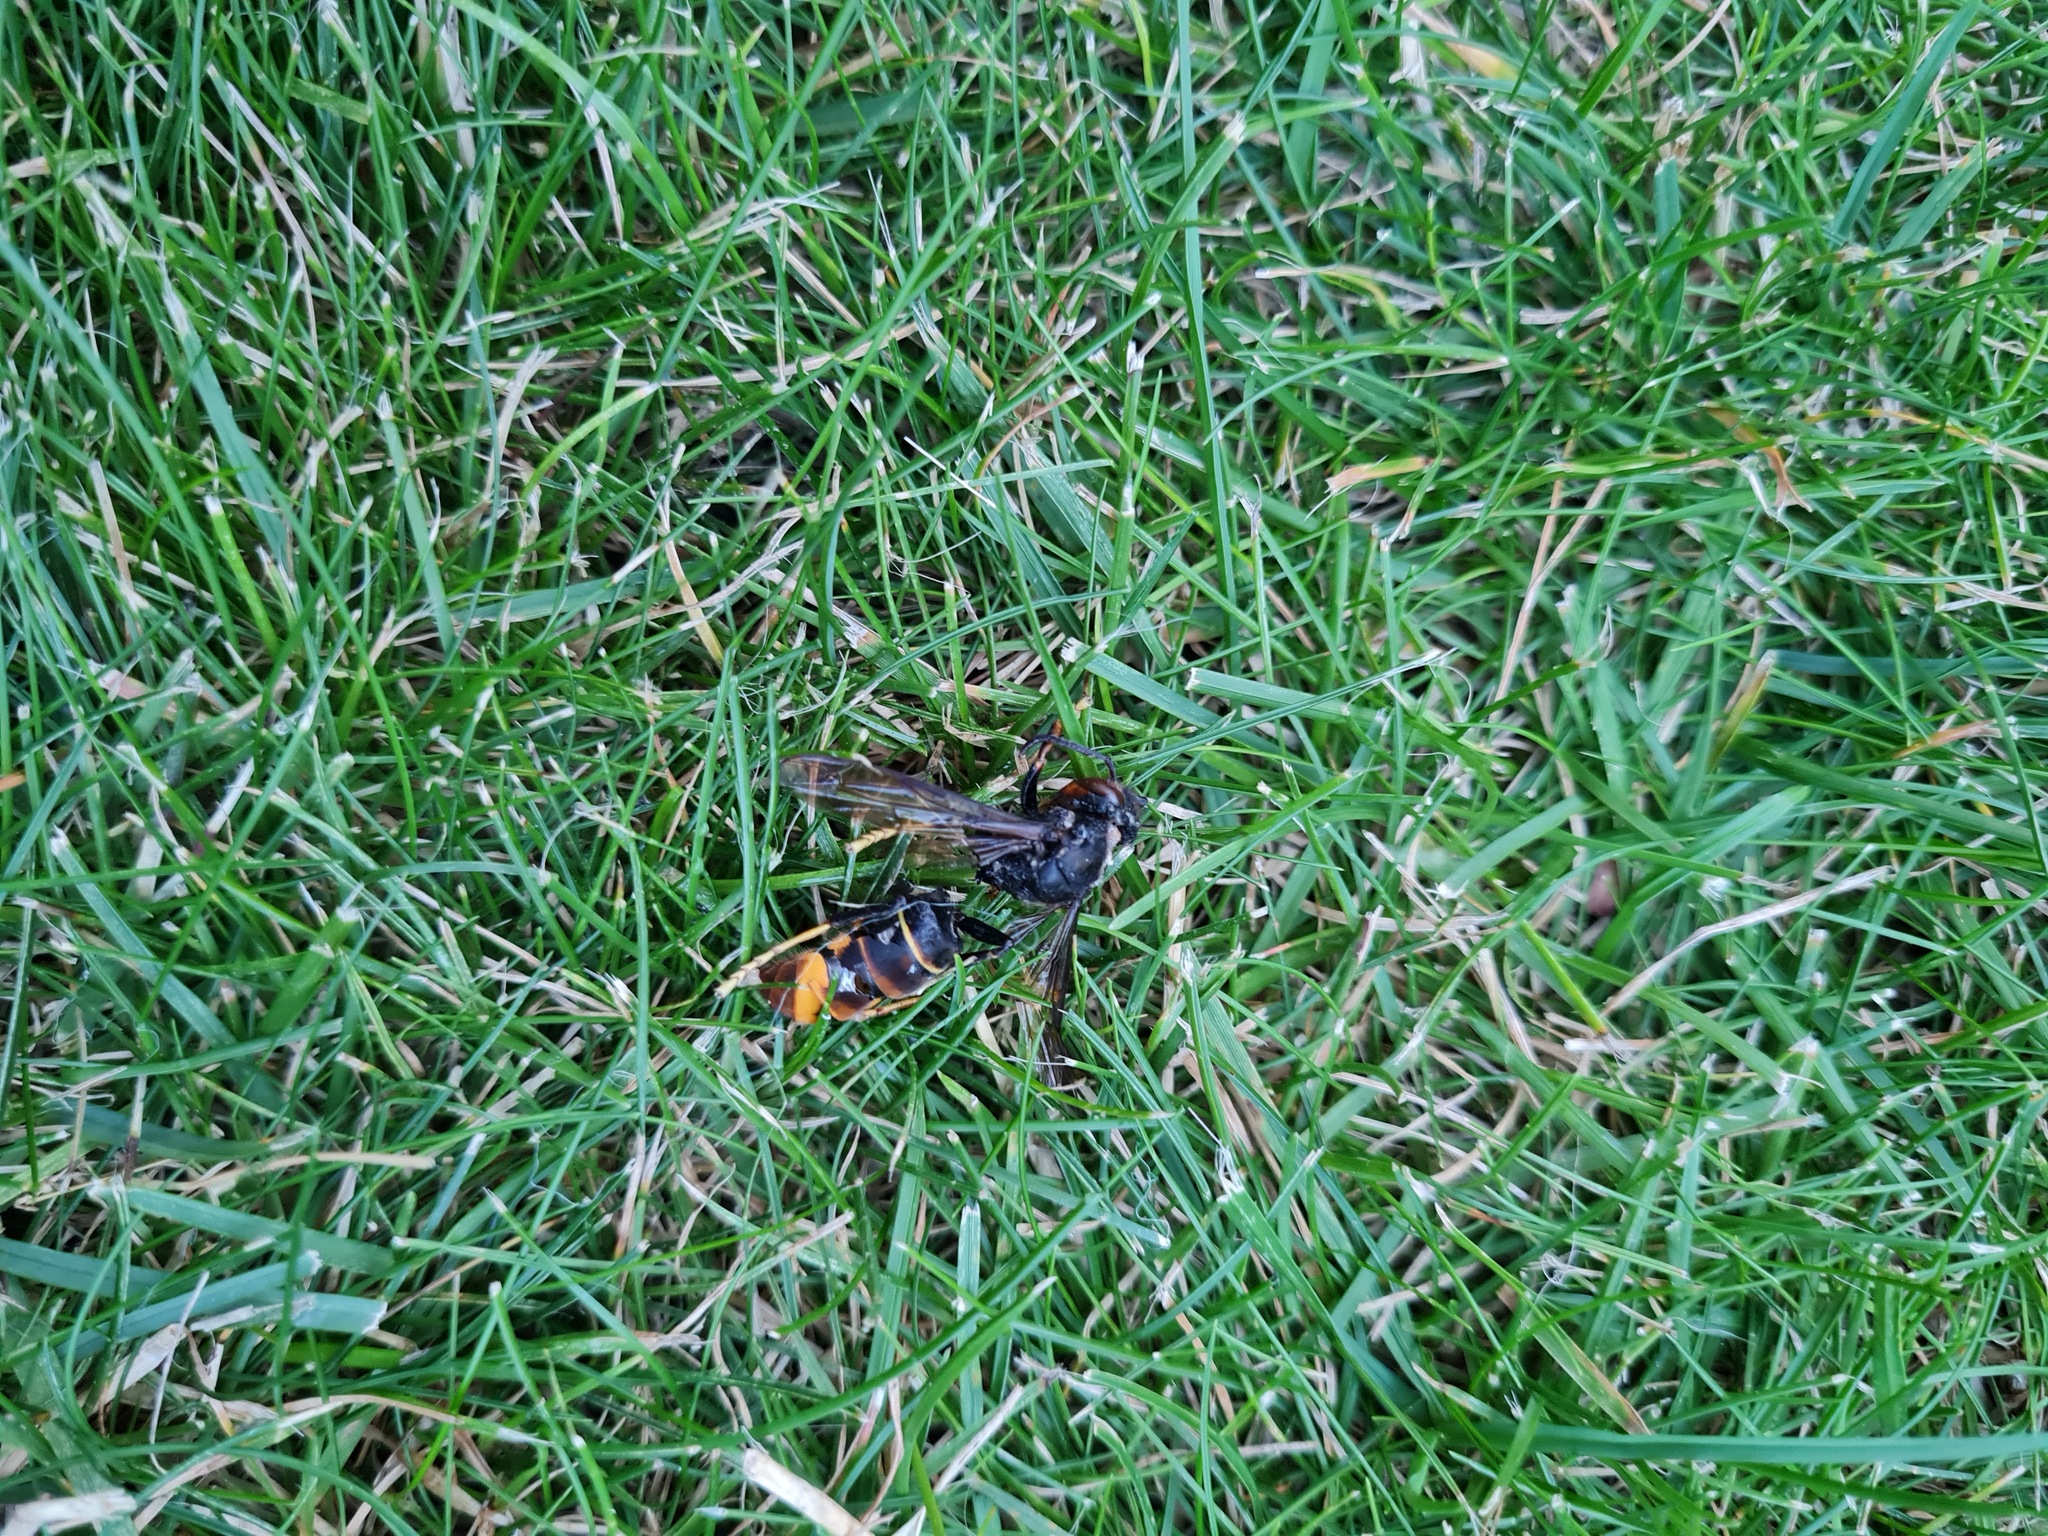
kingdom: Animalia
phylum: Arthropoda
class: Insecta
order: Hymenoptera
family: Vespidae
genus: Vespa
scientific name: Vespa velutina
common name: Asian hornet
